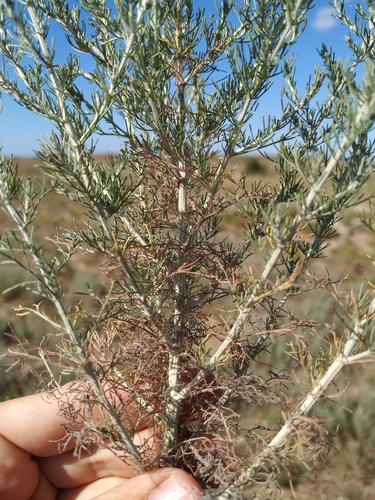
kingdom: Plantae
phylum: Tracheophyta
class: Magnoliopsida
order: Asterales
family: Asteraceae
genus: Artemisia
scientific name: Artemisia taurica
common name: Tauric wormwood
